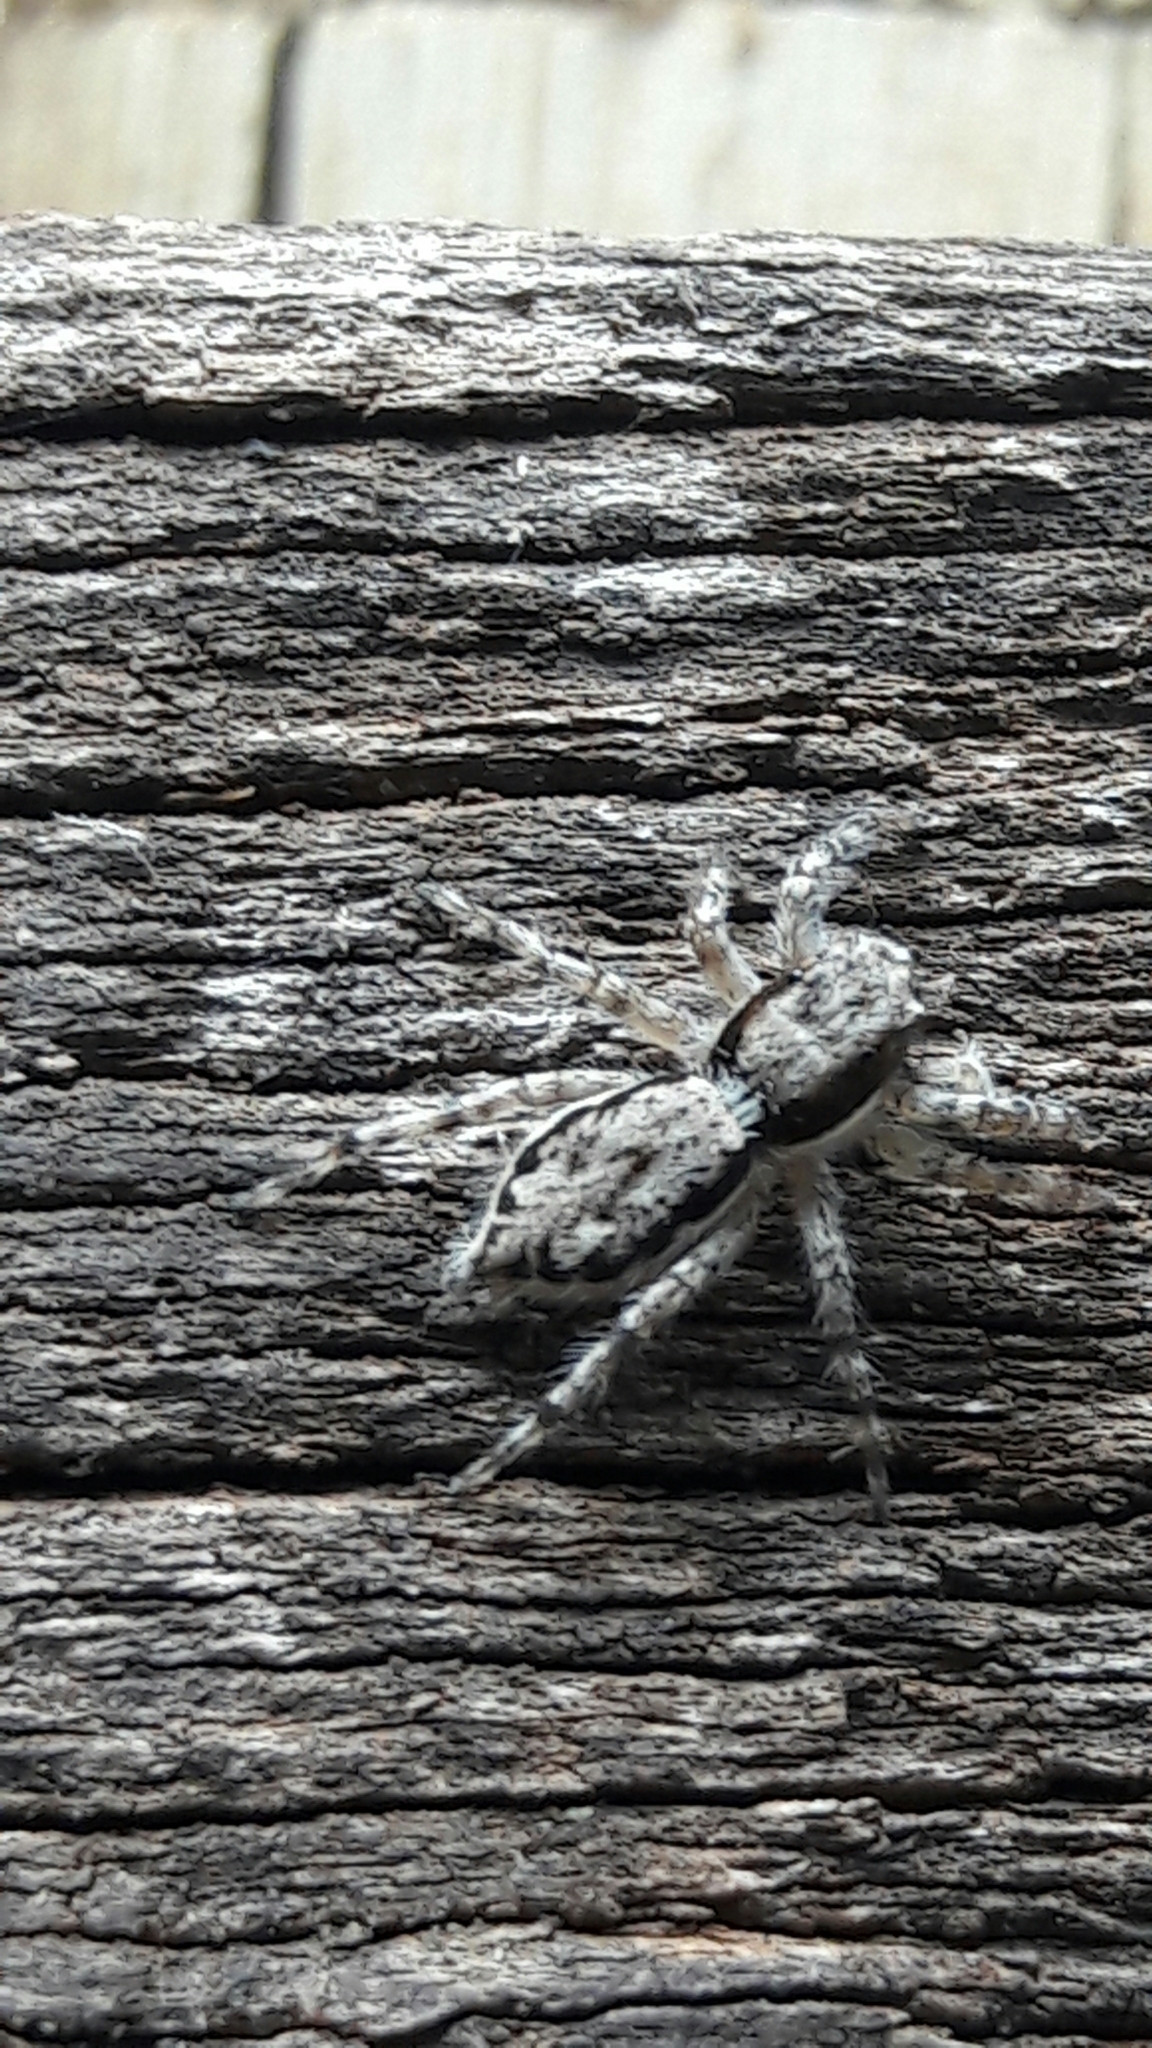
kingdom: Animalia
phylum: Arthropoda
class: Arachnida
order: Araneae
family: Salticidae
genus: Menemerus
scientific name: Menemerus bivittatus
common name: Gray wall jumper
